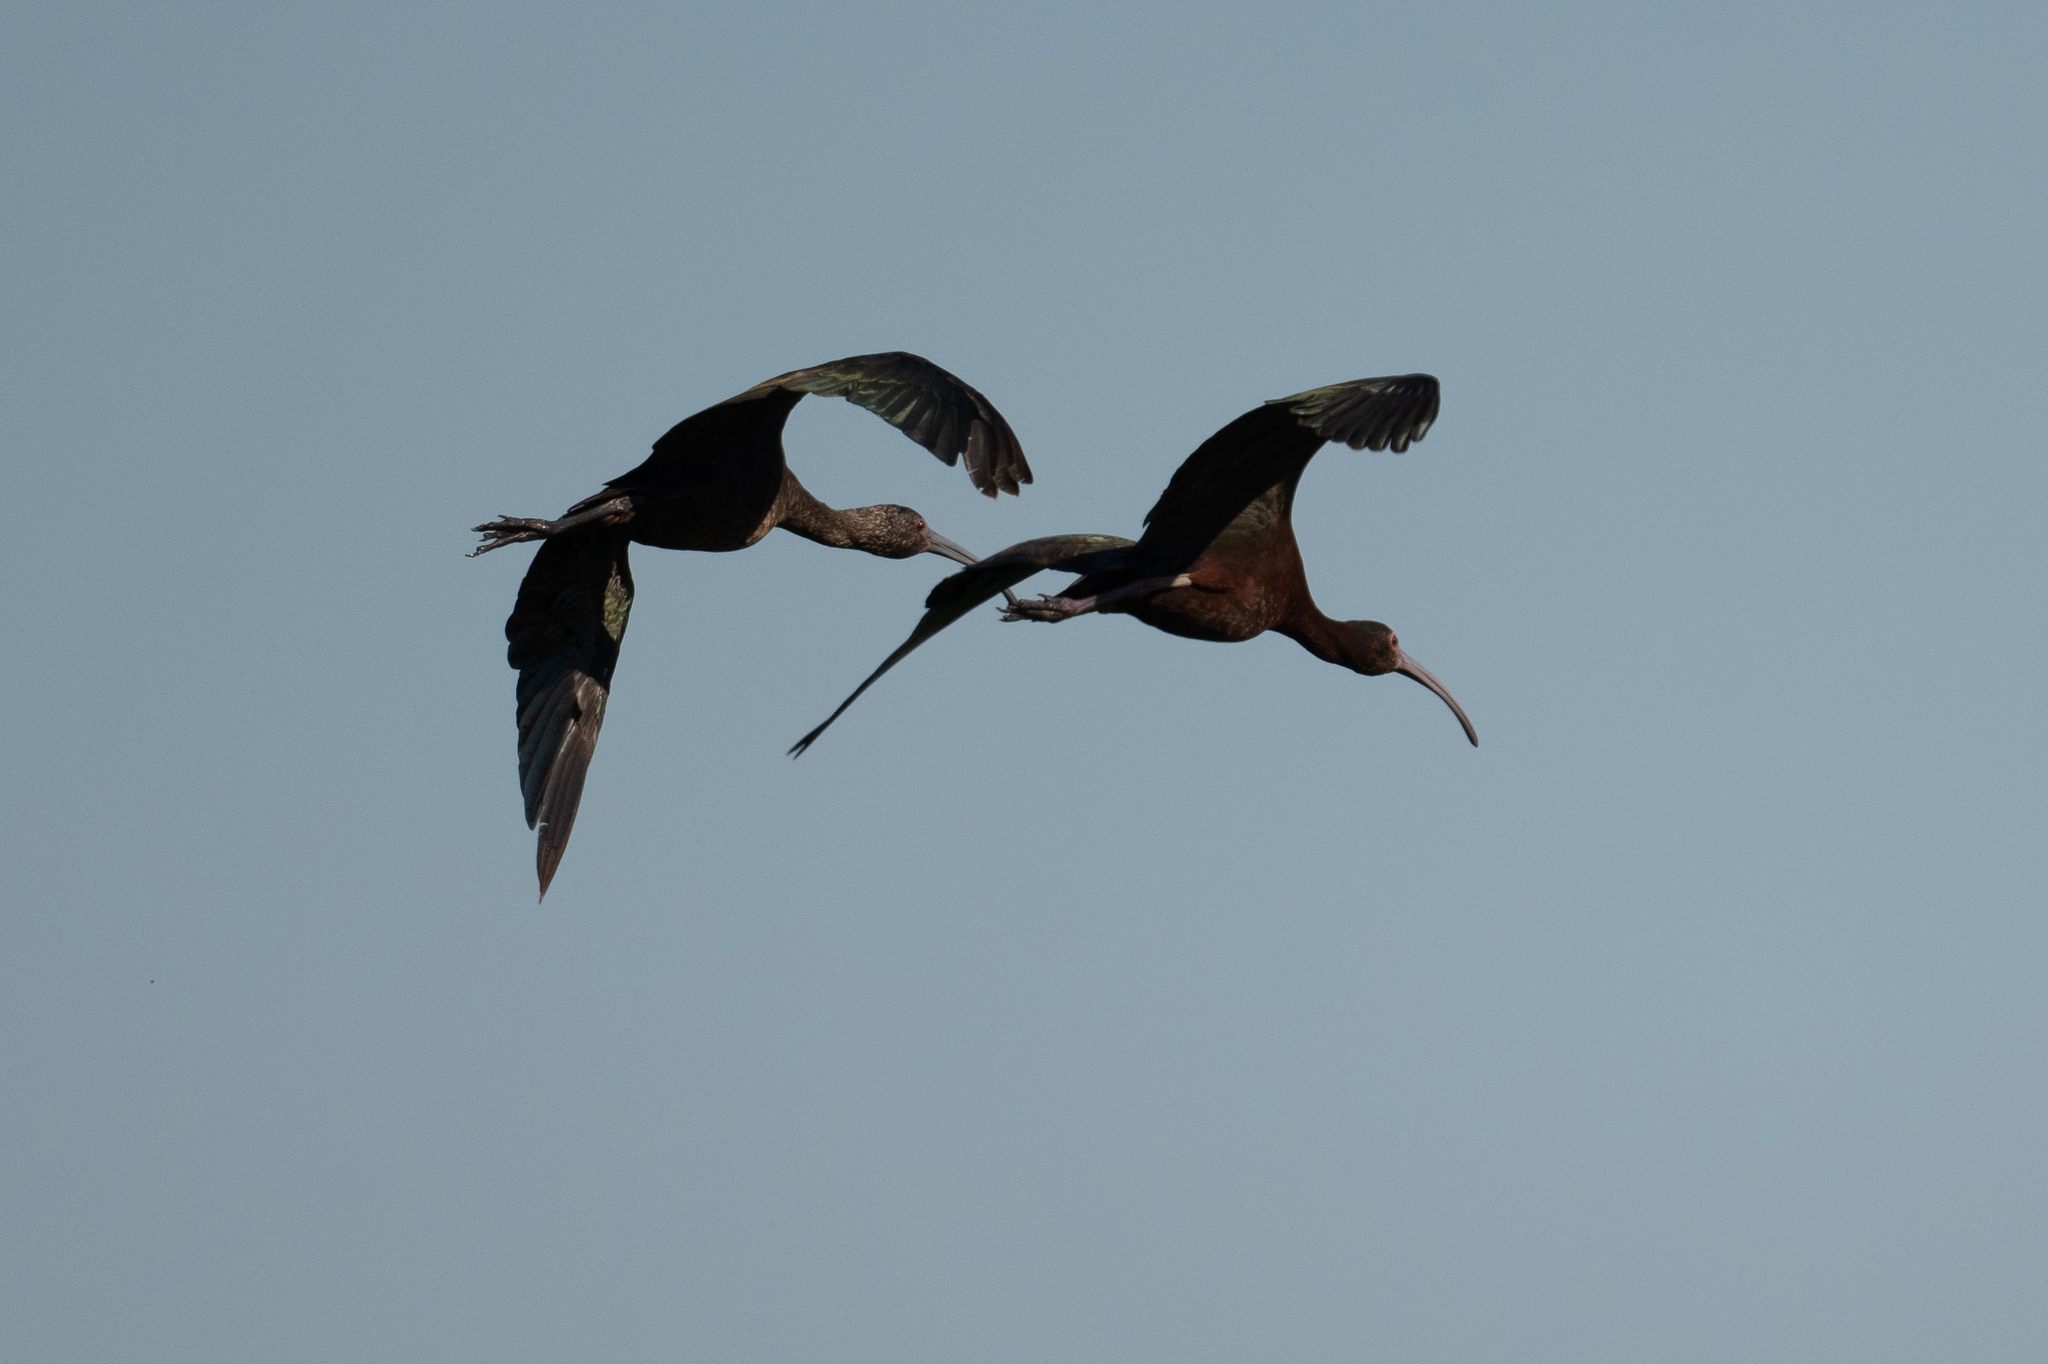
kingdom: Animalia
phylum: Chordata
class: Aves
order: Pelecaniformes
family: Threskiornithidae
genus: Plegadis
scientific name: Plegadis chihi
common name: White-faced ibis
